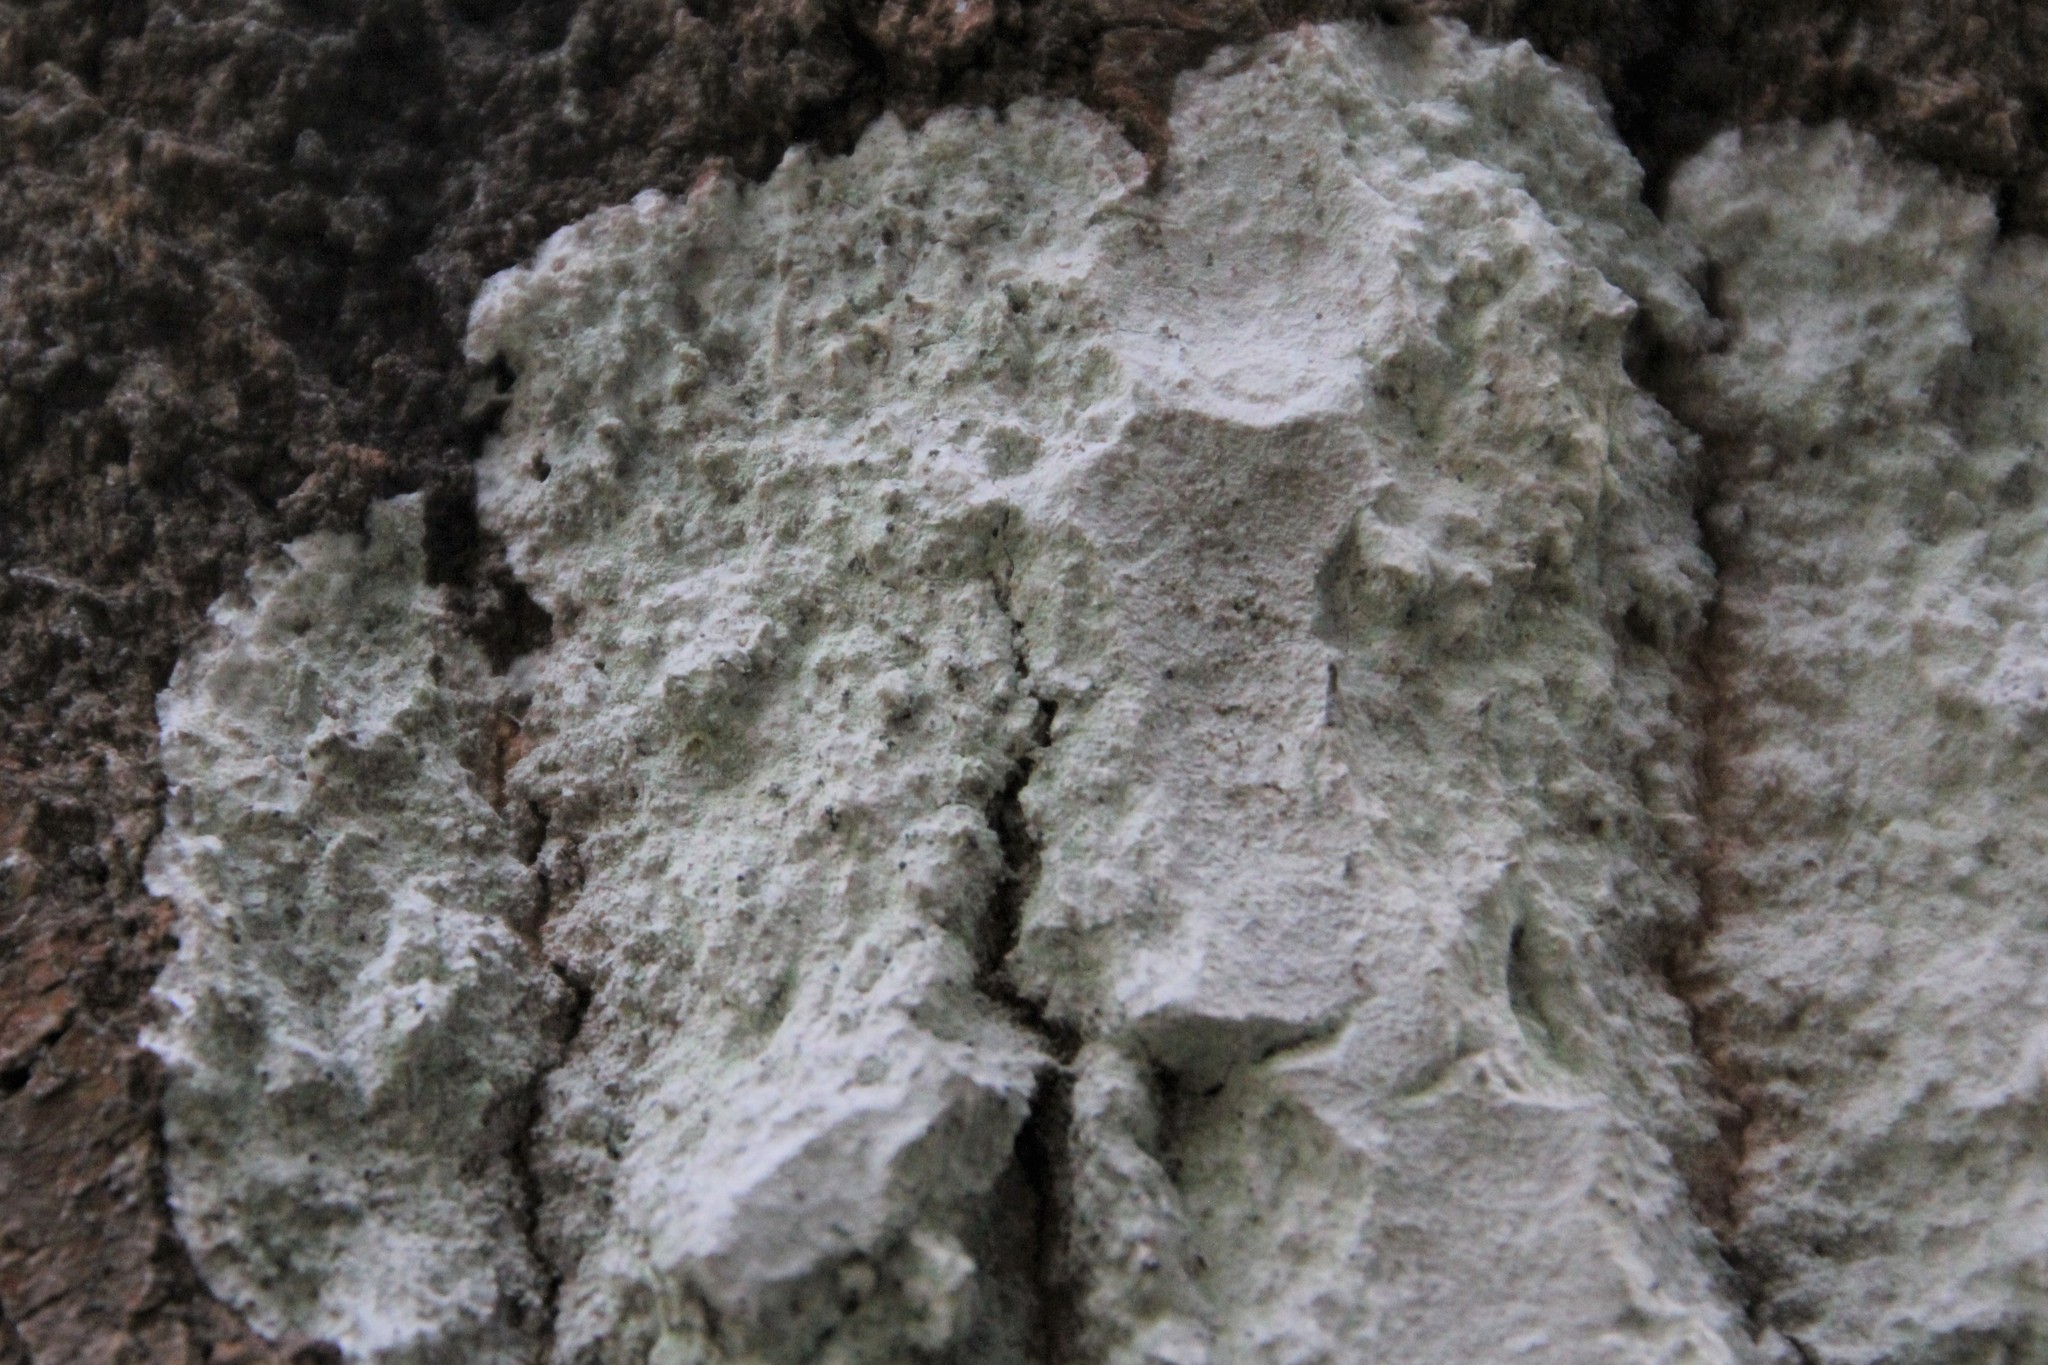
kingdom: Fungi
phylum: Ascomycota
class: Lecanoromycetes
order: Ostropales
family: Phlyctidaceae
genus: Phlyctis
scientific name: Phlyctis argena
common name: Whitewash lichen
